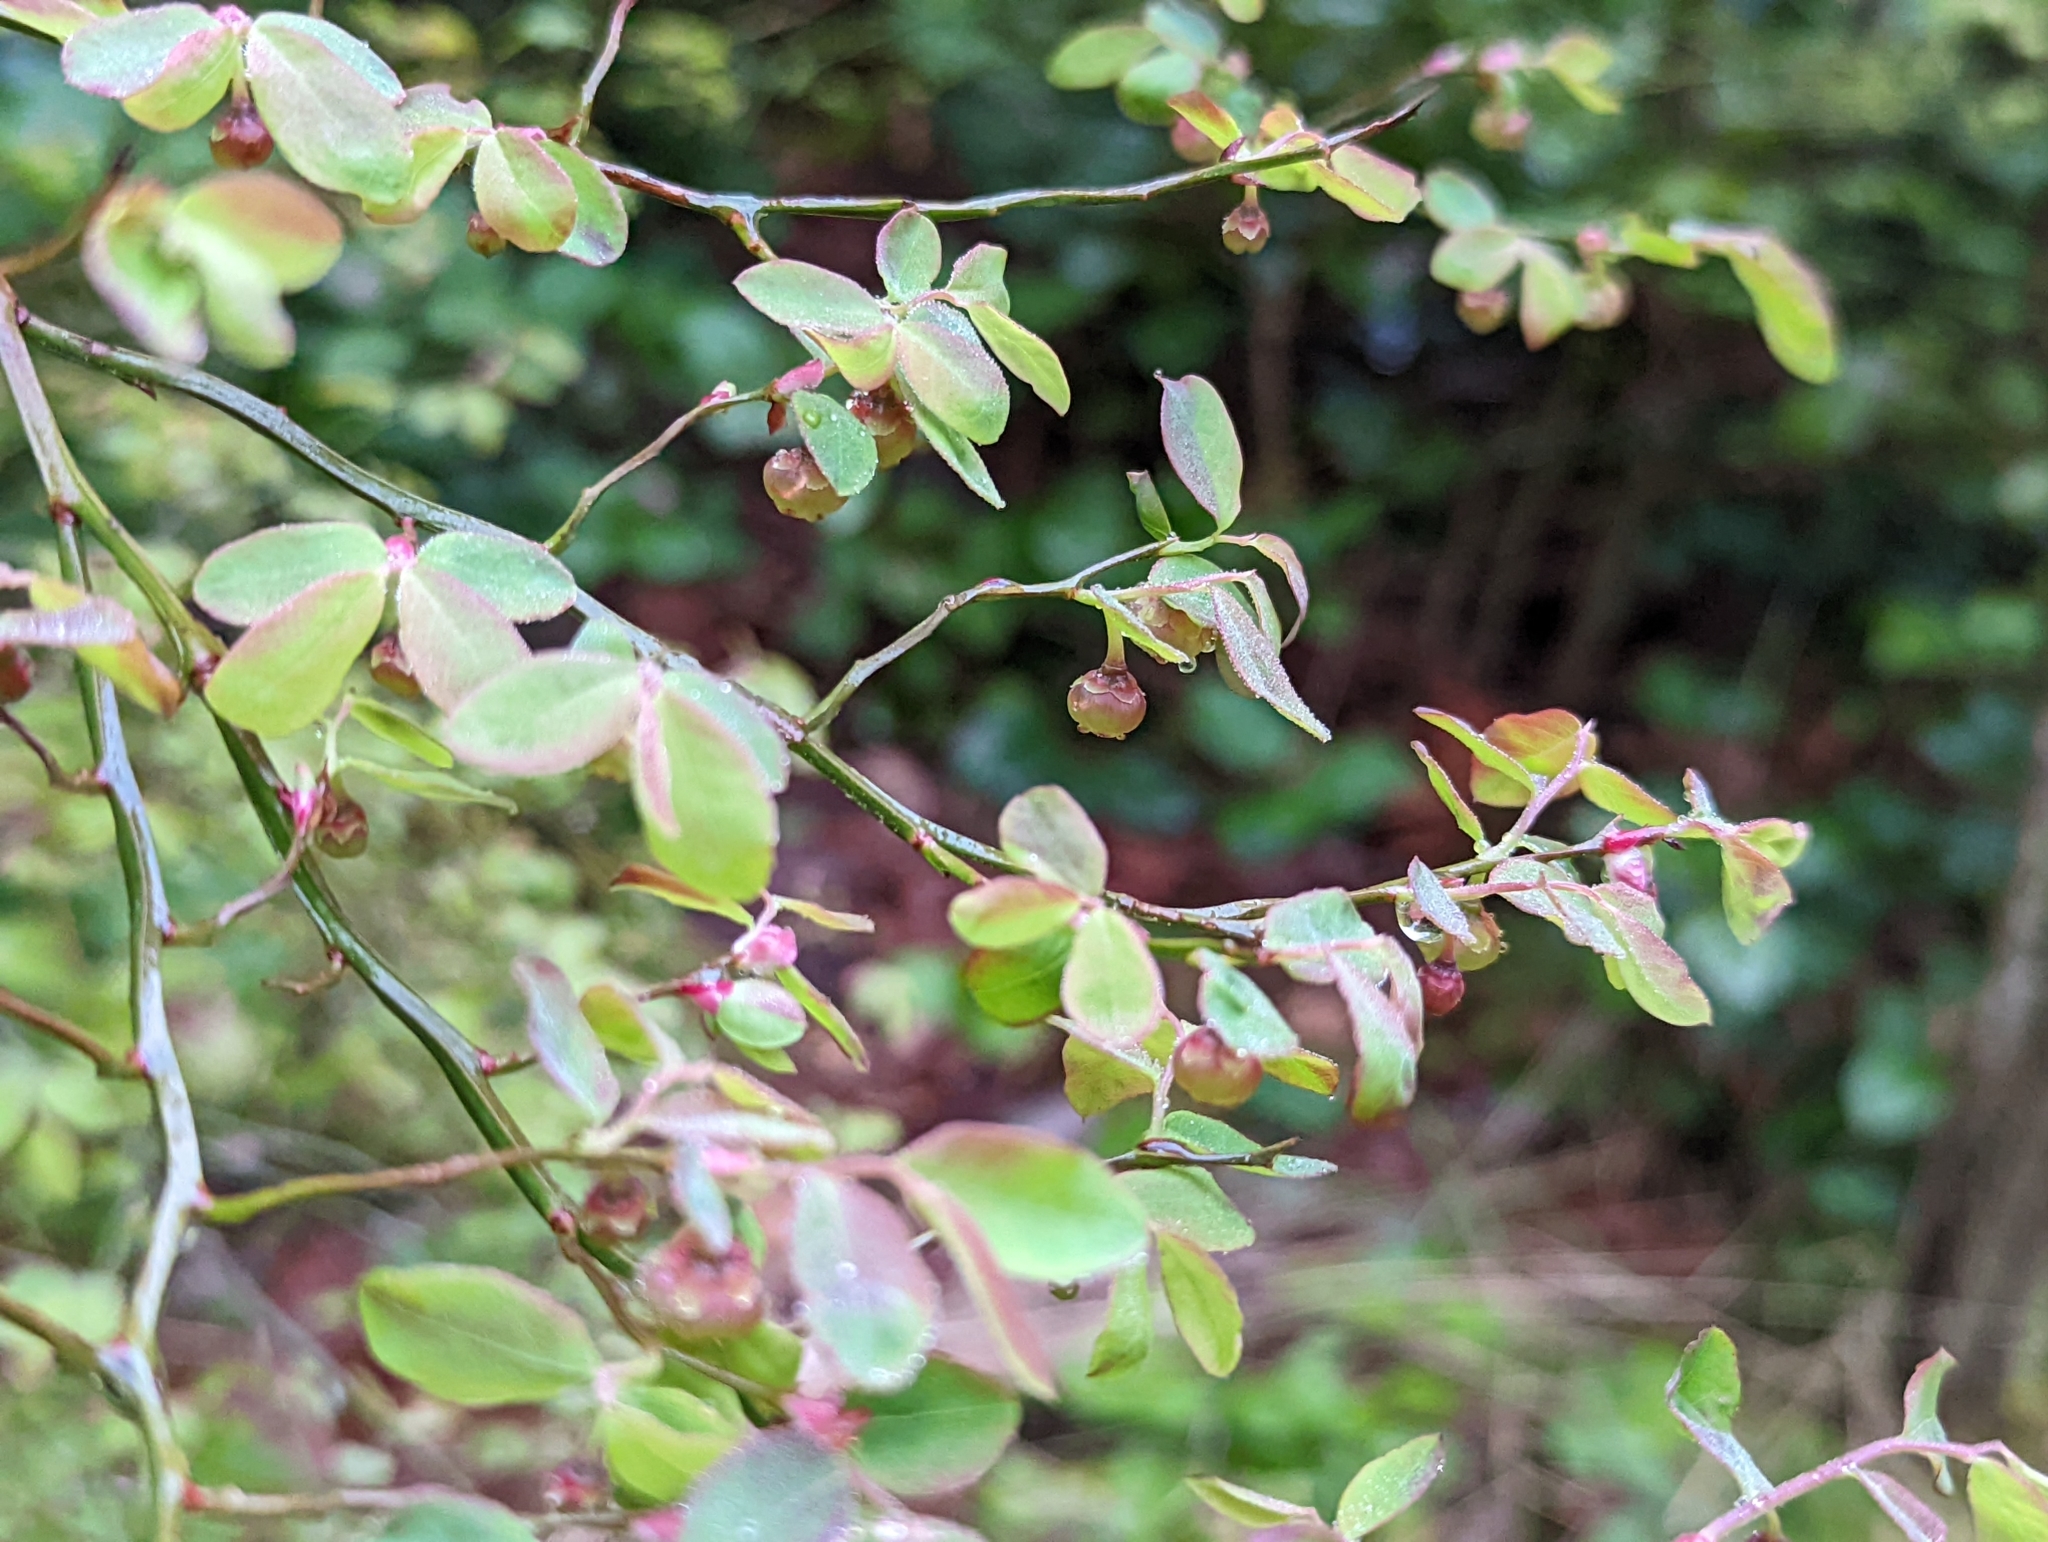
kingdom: Plantae
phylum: Tracheophyta
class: Magnoliopsida
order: Ericales
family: Ericaceae
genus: Vaccinium
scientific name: Vaccinium parvifolium
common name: Red-huckleberry
